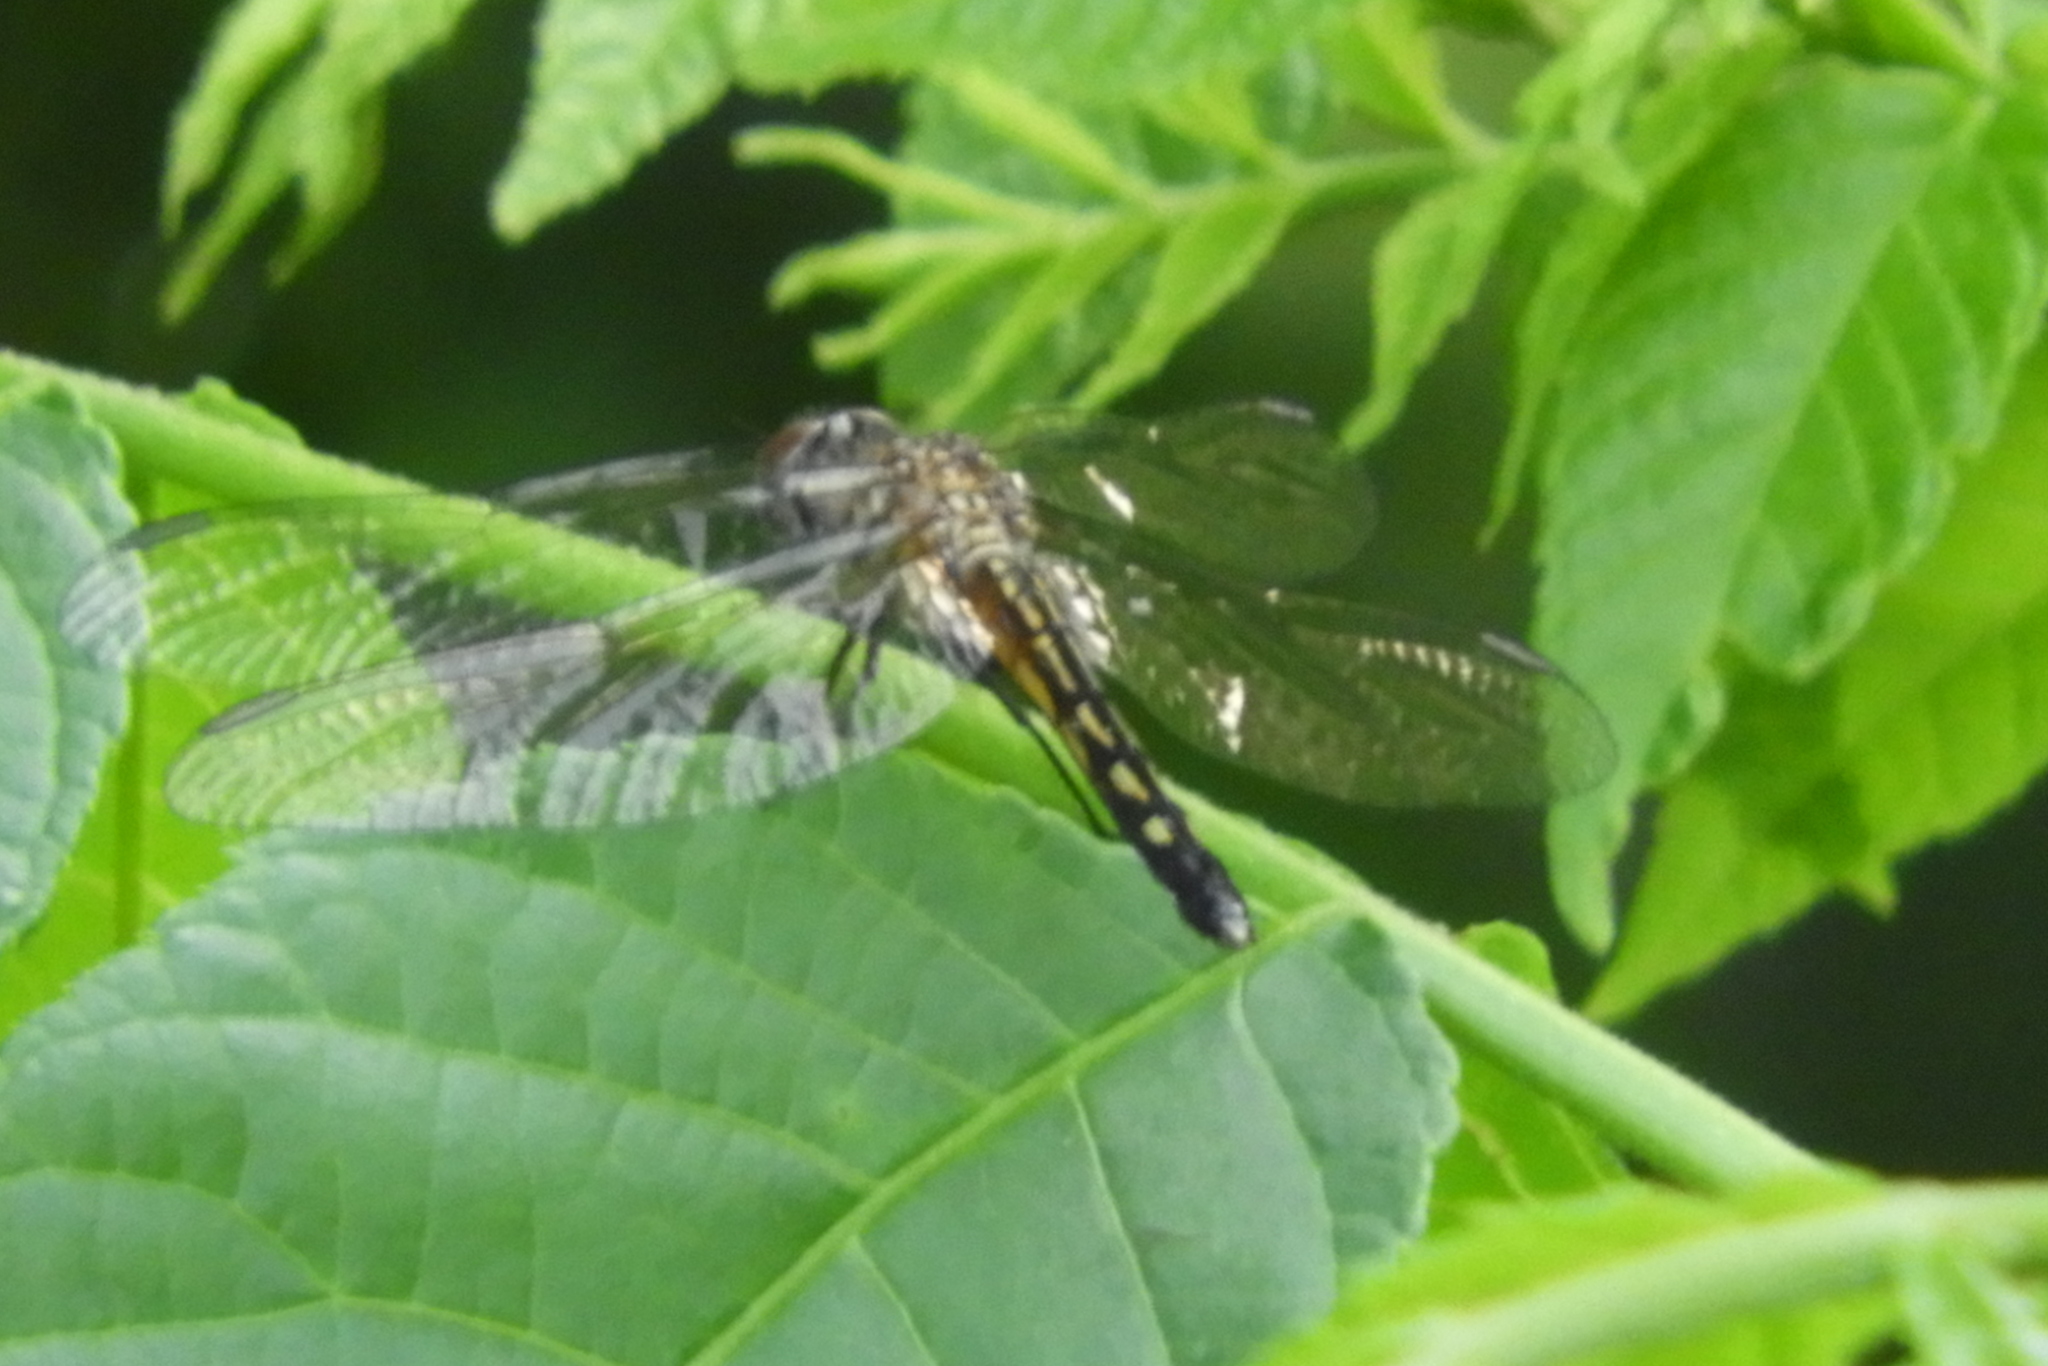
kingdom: Animalia
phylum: Arthropoda
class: Insecta
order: Odonata
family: Libellulidae
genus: Pachydiplax
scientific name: Pachydiplax longipennis
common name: Blue dasher
